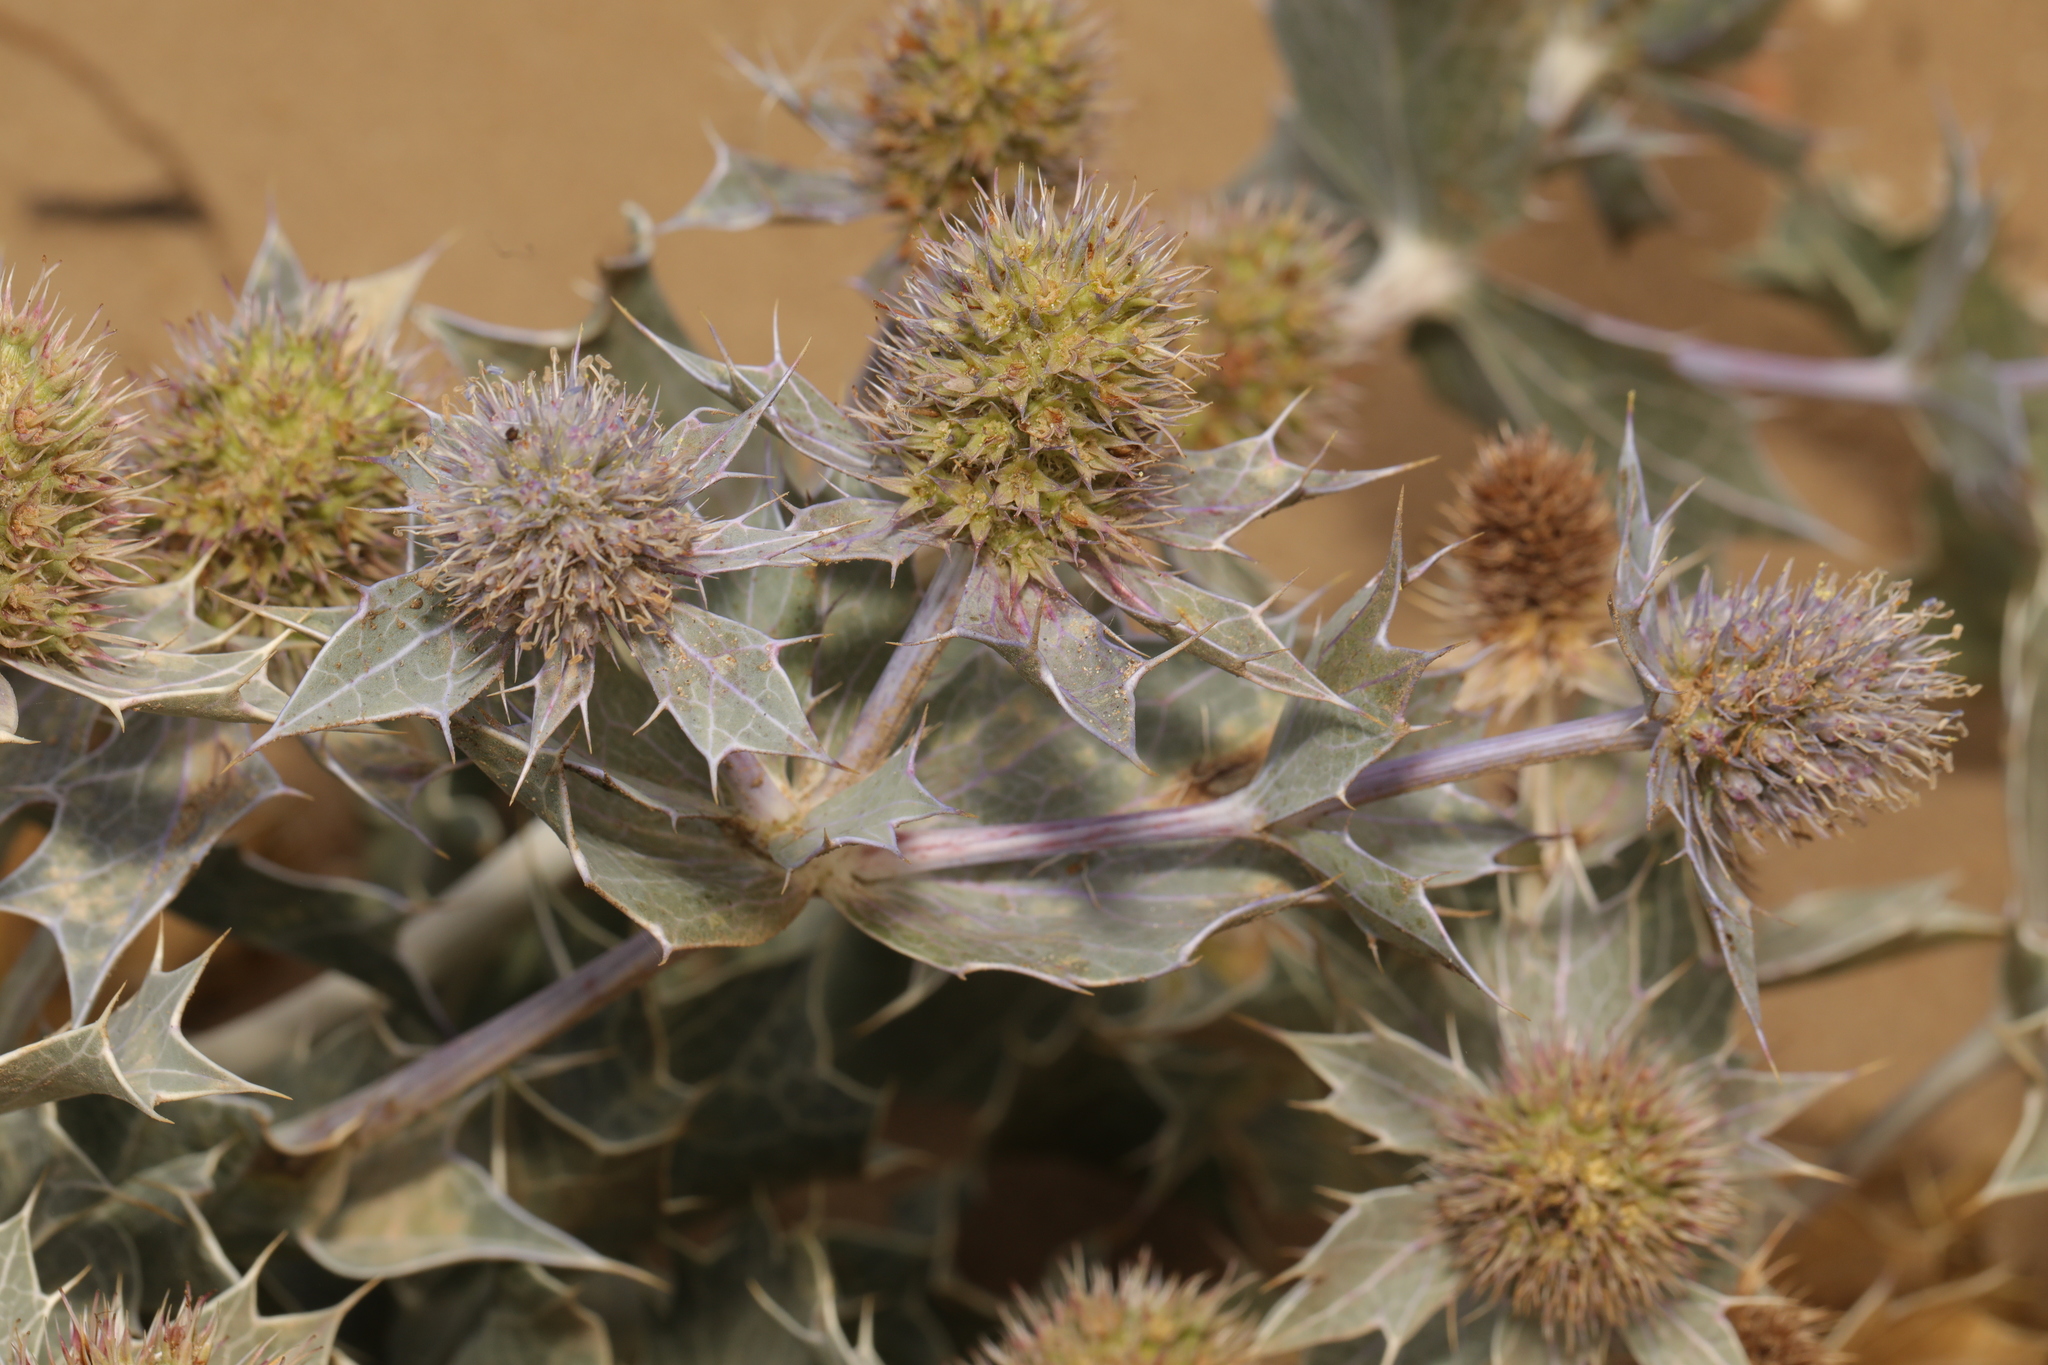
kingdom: Plantae
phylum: Tracheophyta
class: Magnoliopsida
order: Apiales
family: Apiaceae
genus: Eryngium
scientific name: Eryngium maritimum
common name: Sea-holly
